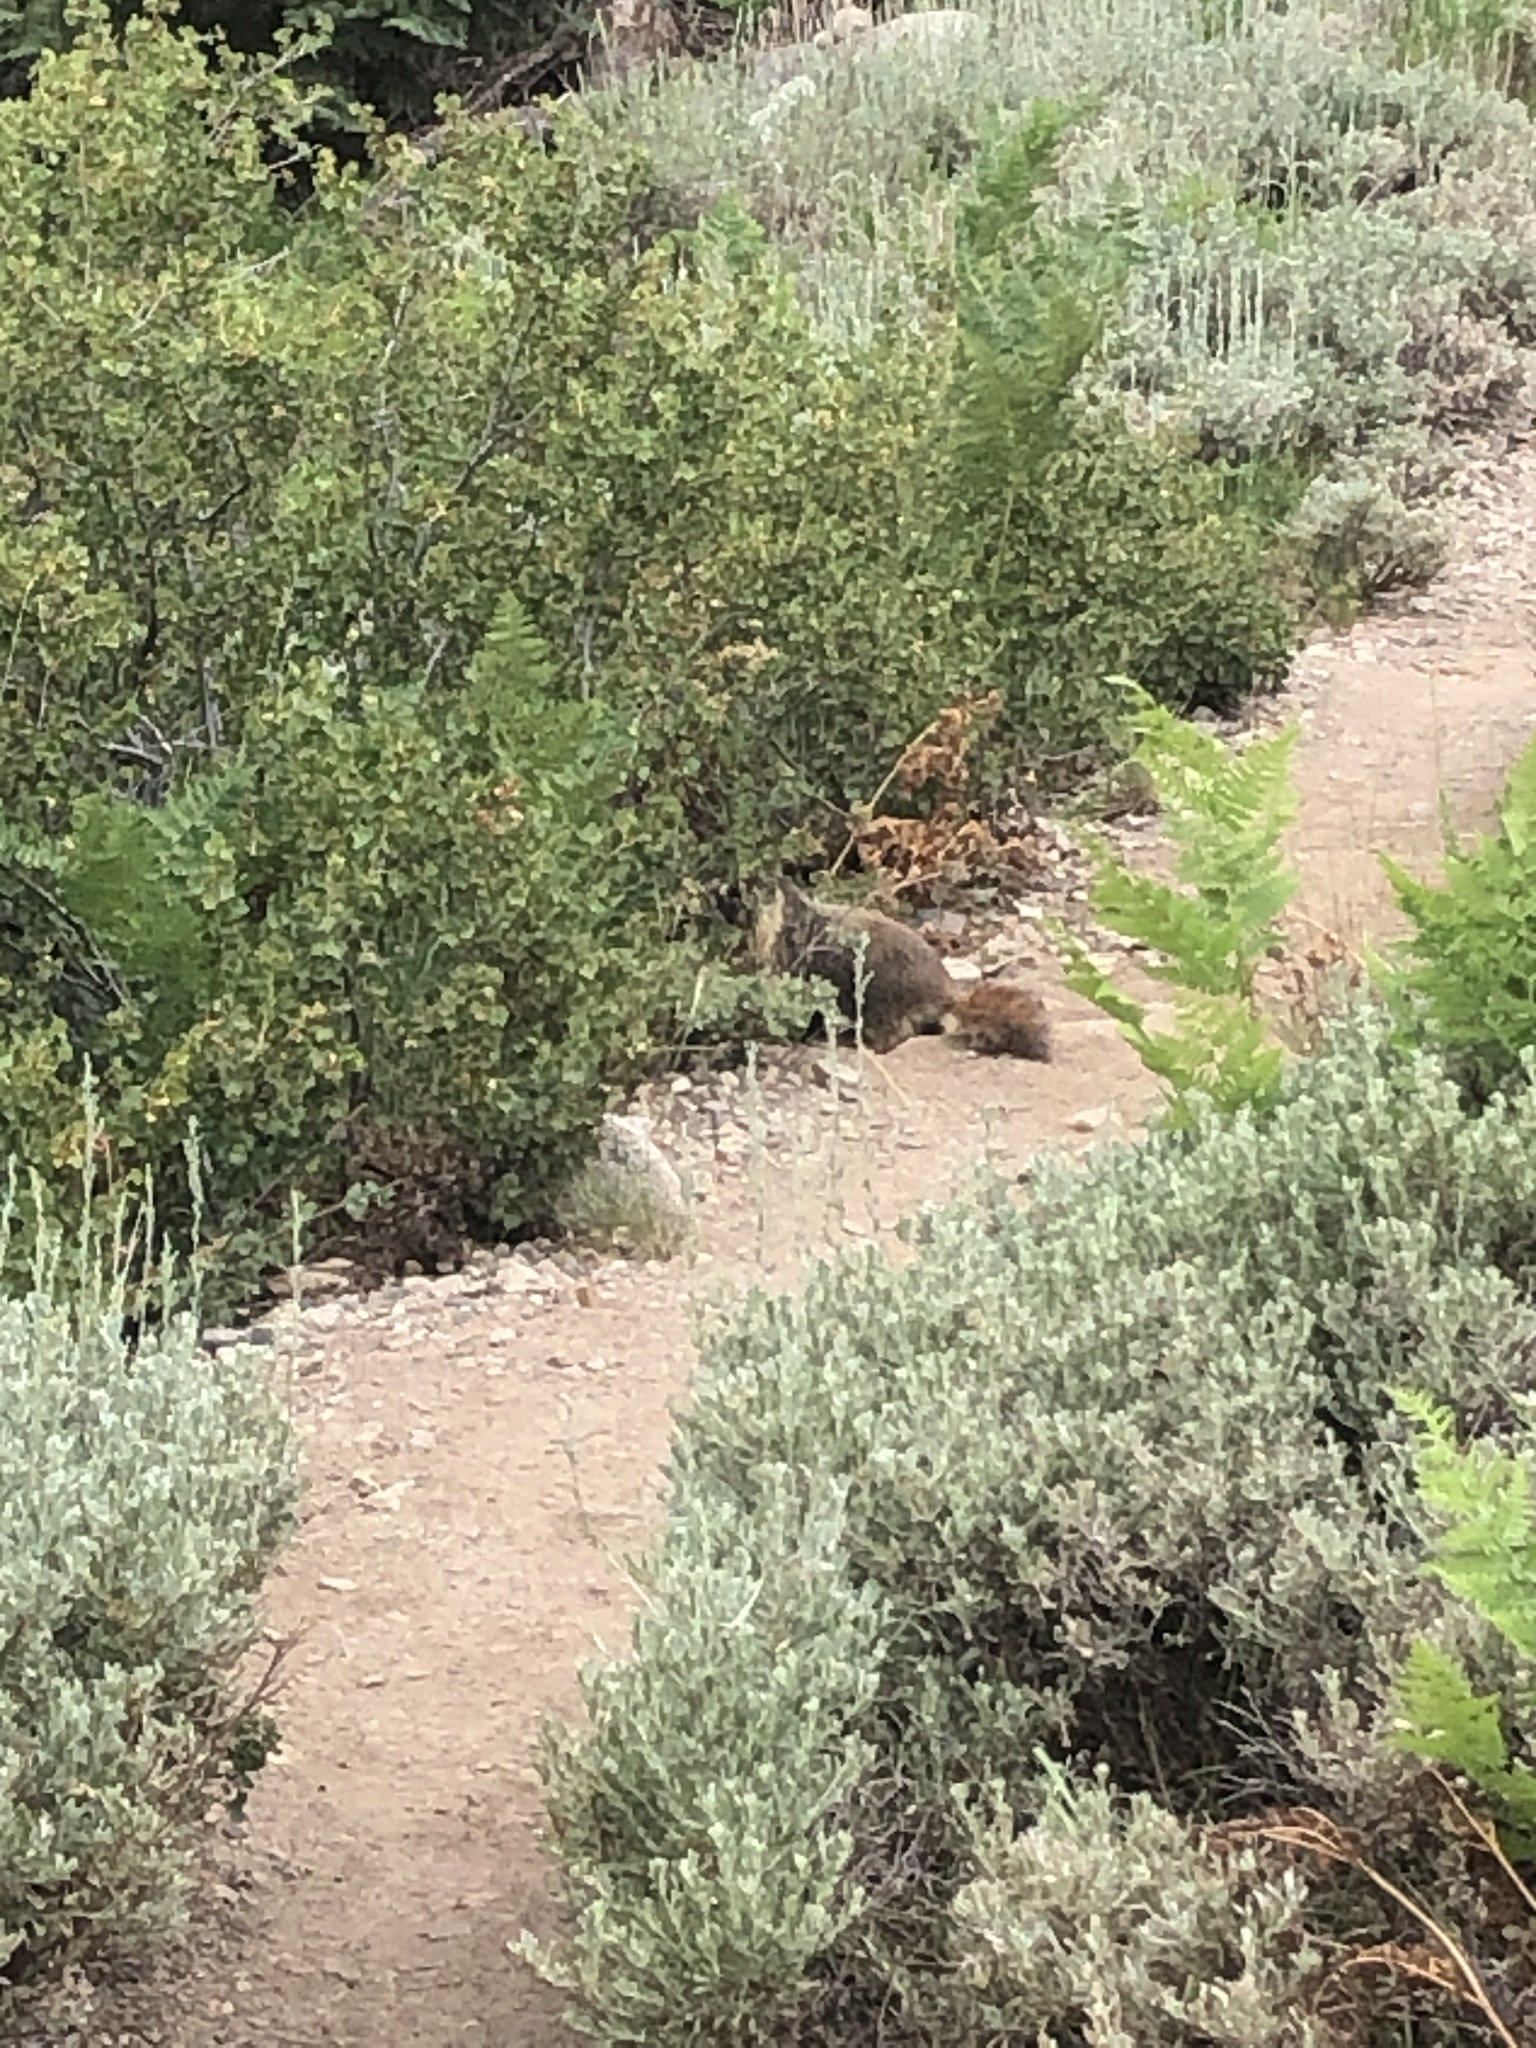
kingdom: Animalia
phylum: Chordata
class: Mammalia
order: Rodentia
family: Sciuridae
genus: Marmota
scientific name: Marmota flaviventris
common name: Yellow-bellied marmot
